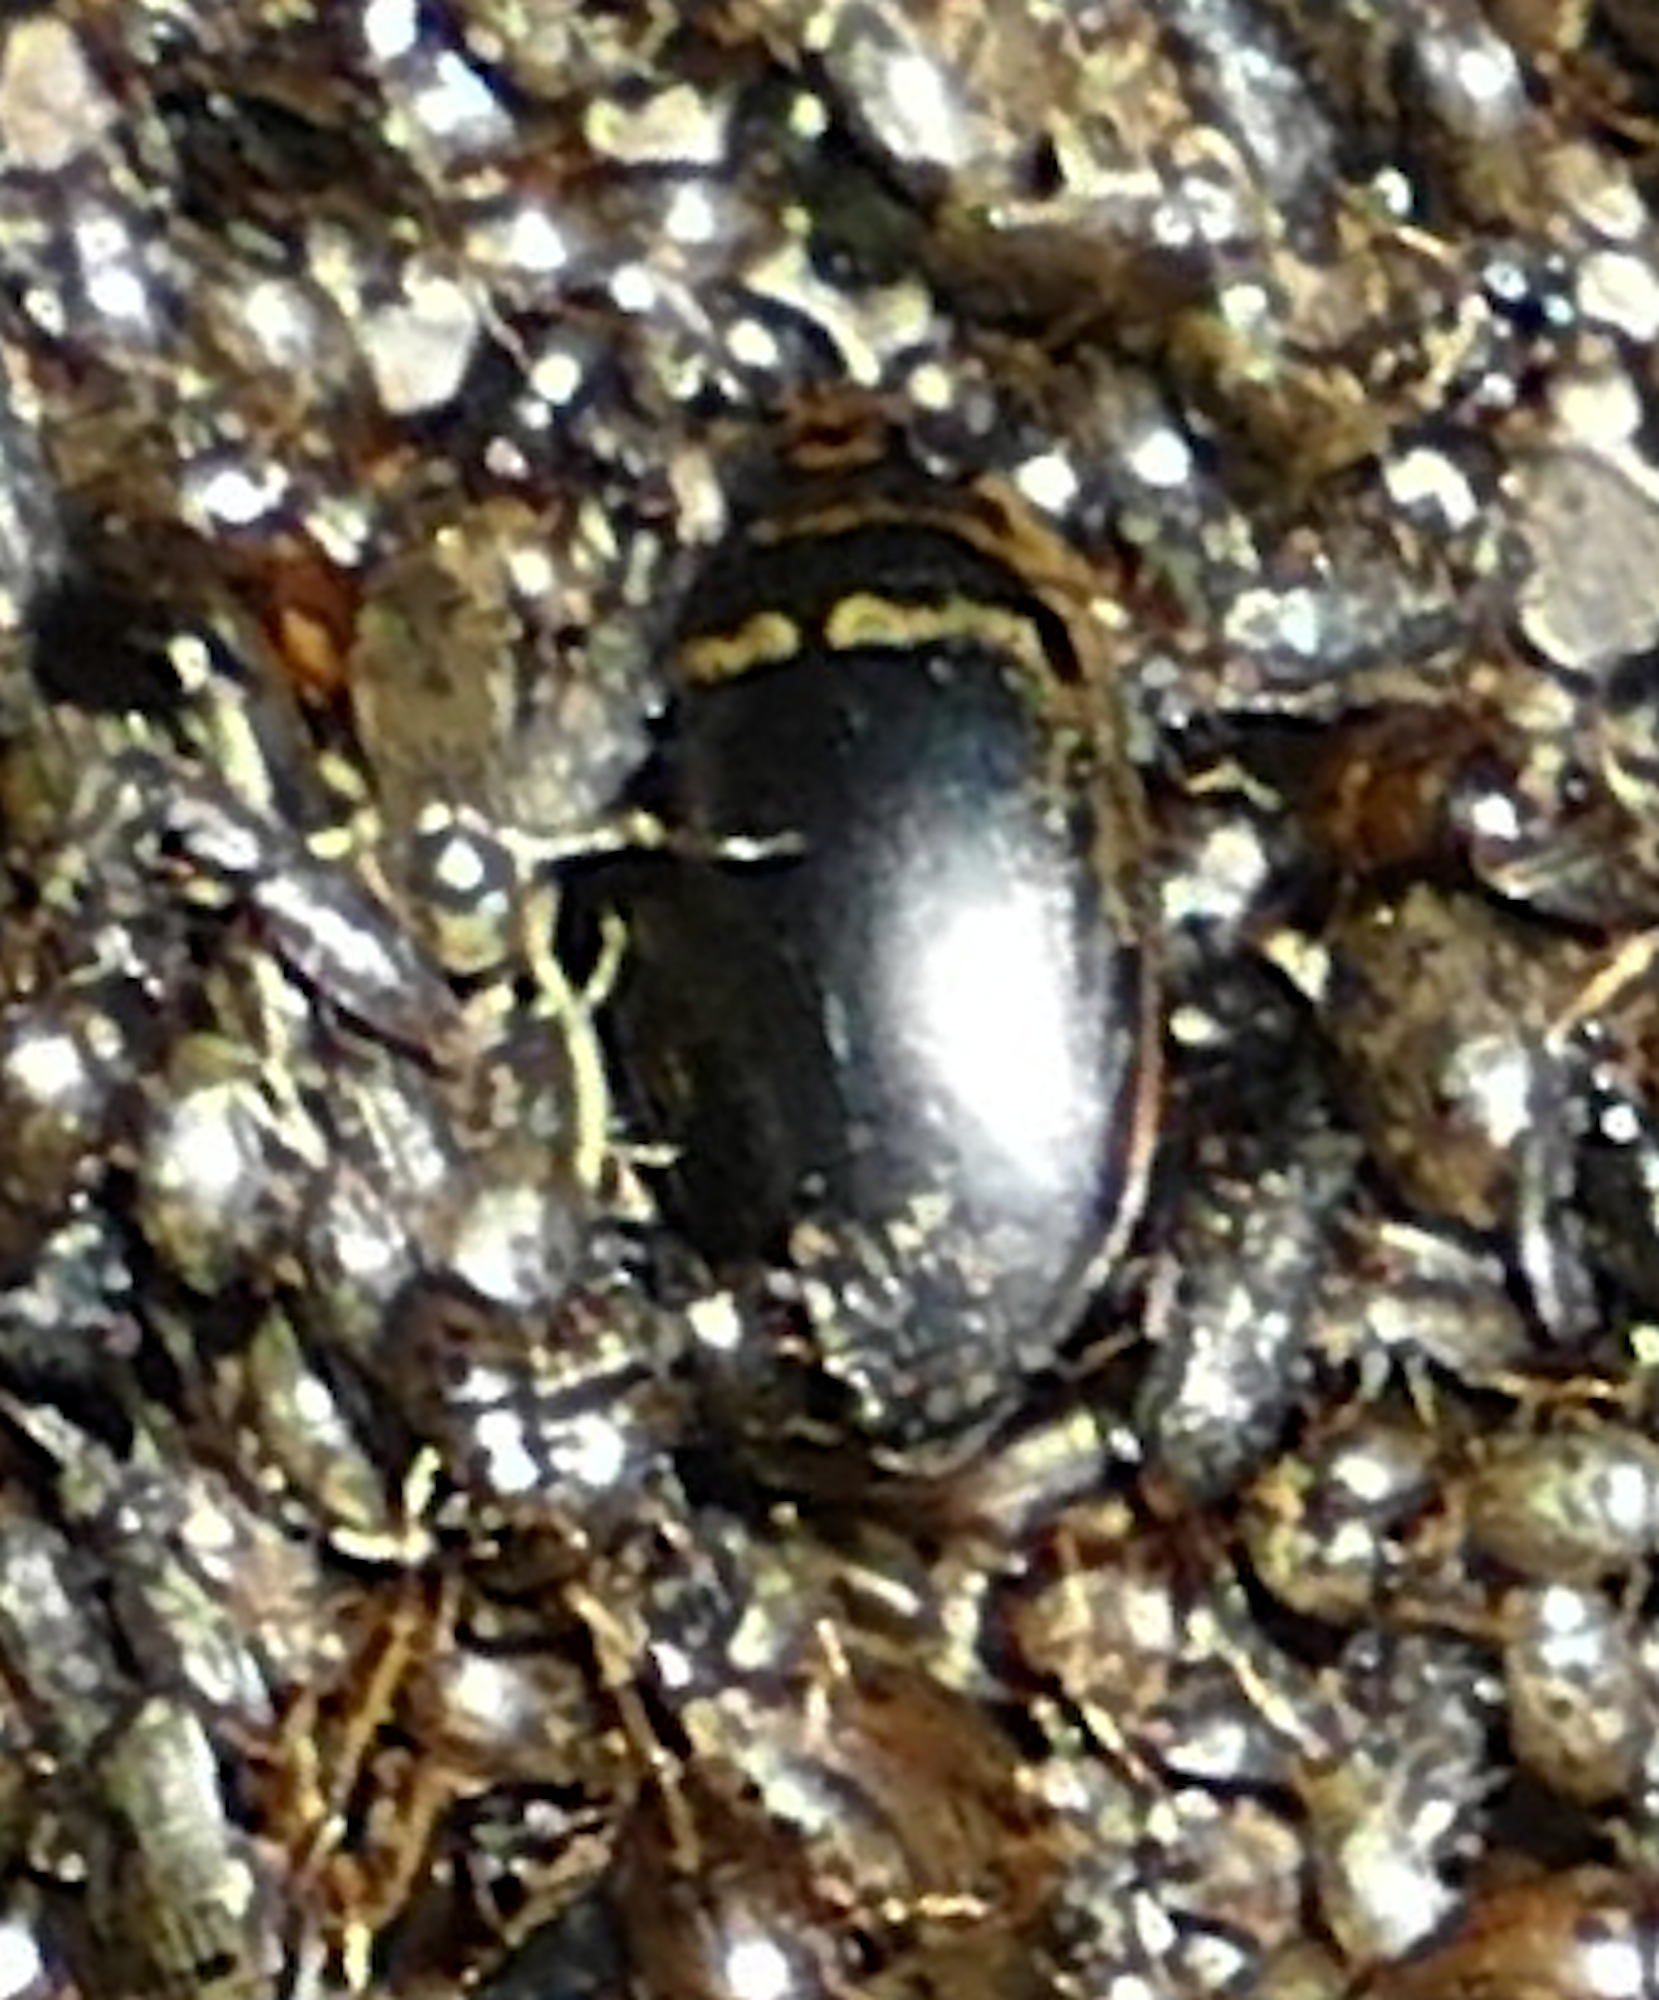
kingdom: Animalia
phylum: Arthropoda
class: Insecta
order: Coleoptera
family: Dytiscidae
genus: Thermonectus
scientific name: Thermonectus basillaris
